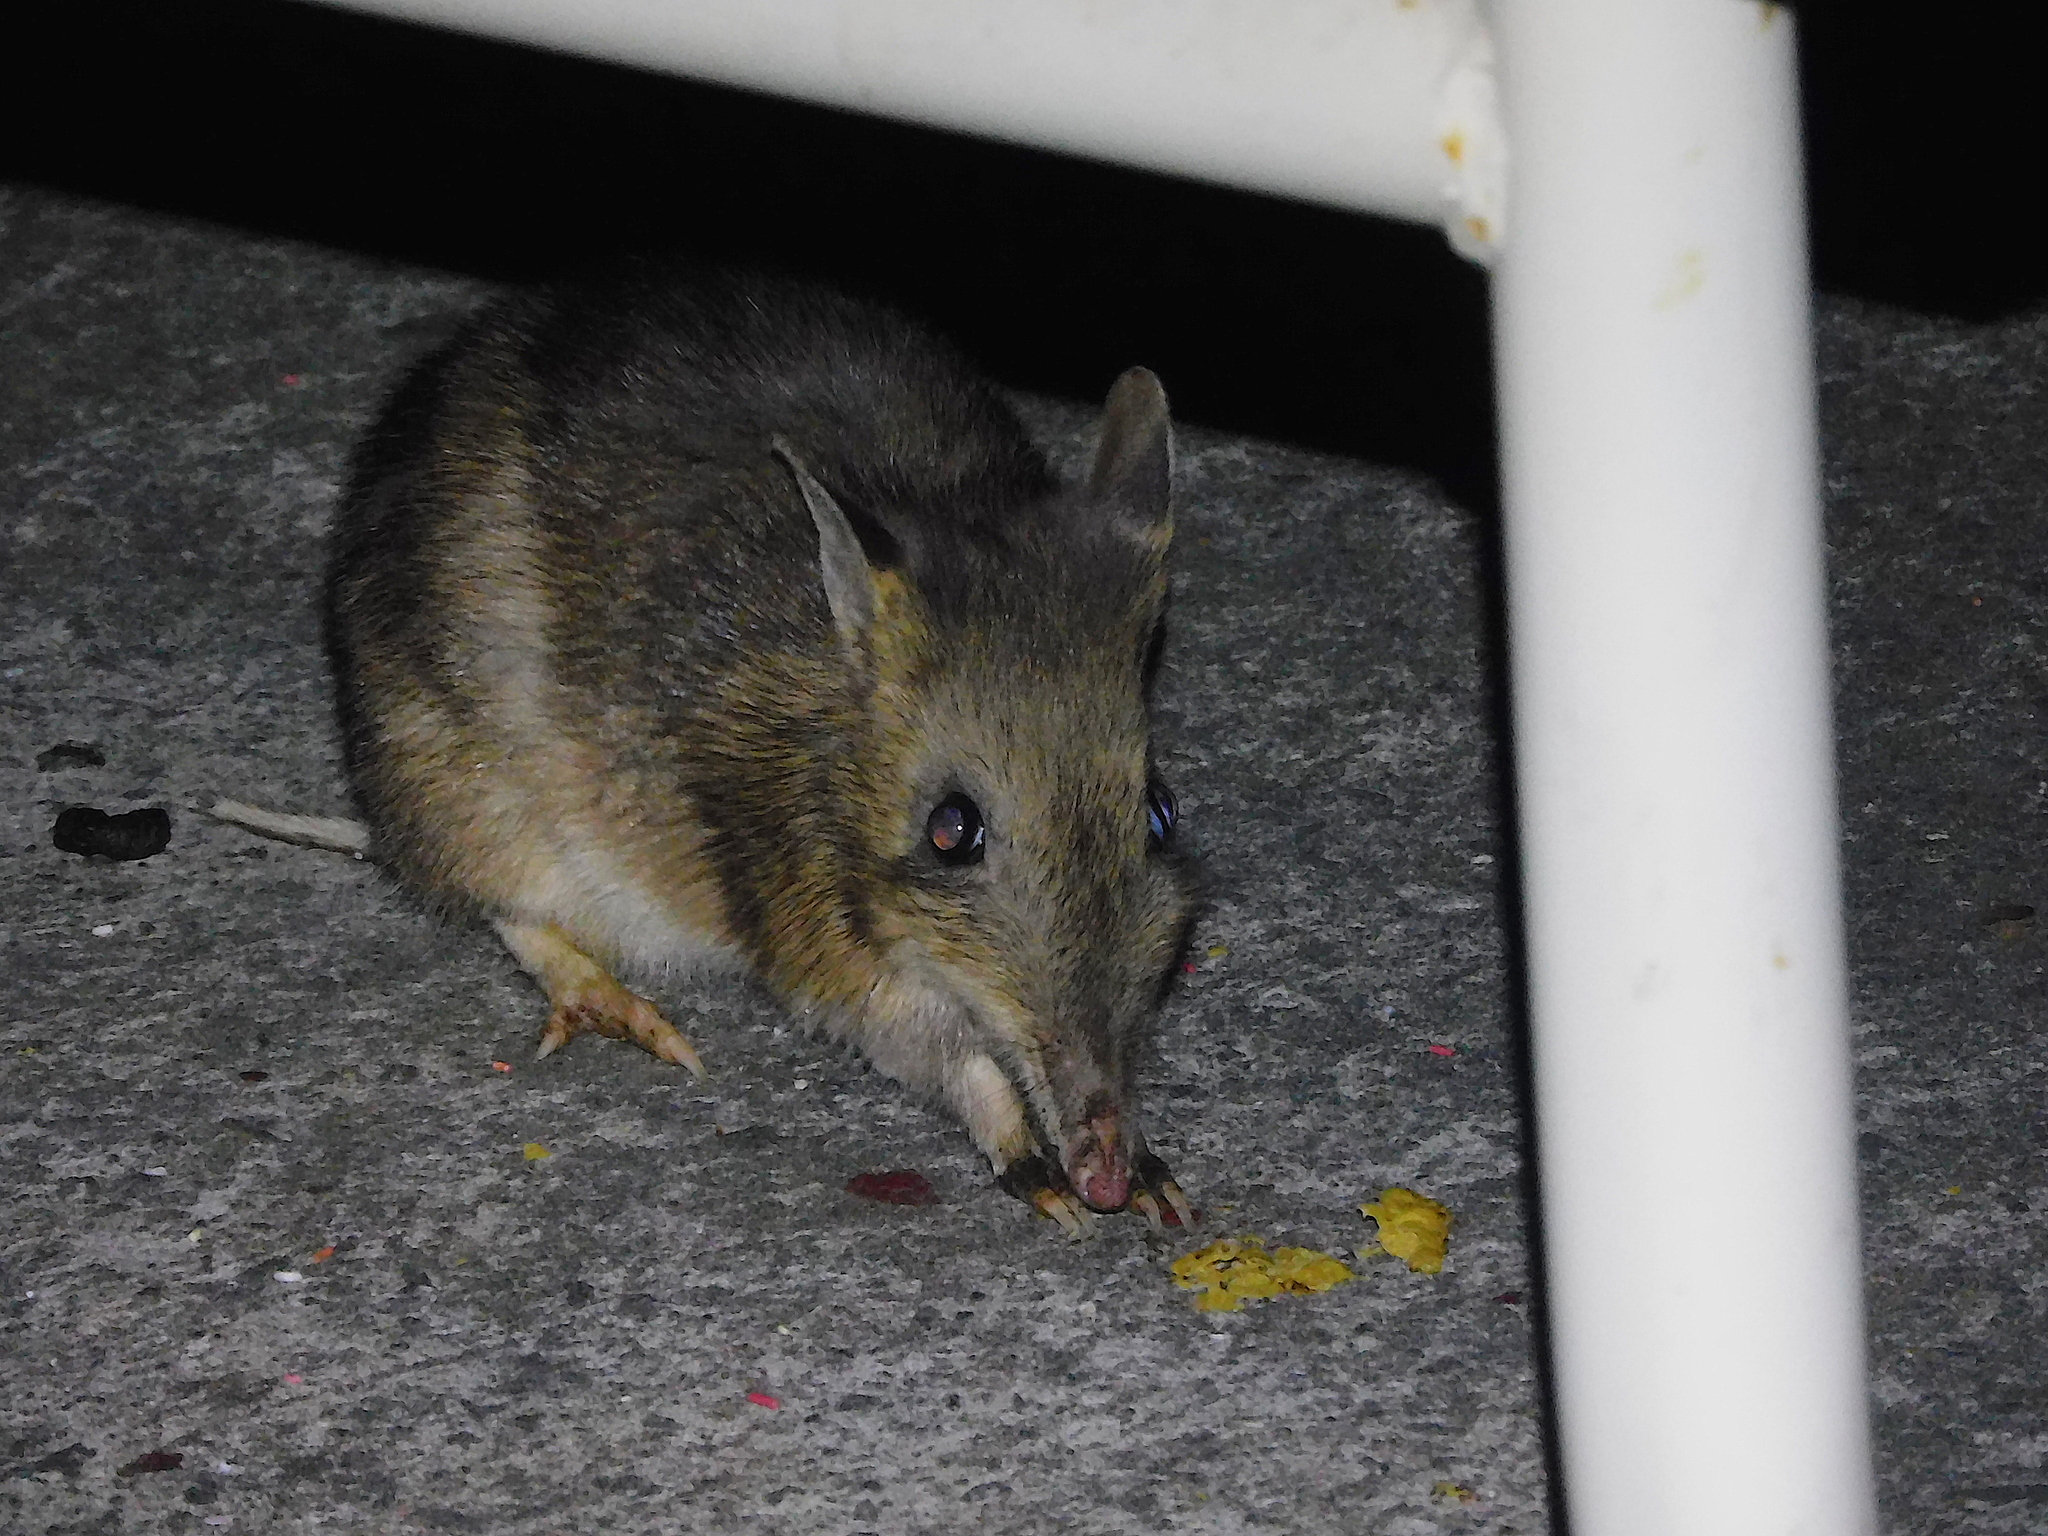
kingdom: Animalia
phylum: Chordata
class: Mammalia
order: Peramelemorphia
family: Peramelidae
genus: Perameles
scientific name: Perameles gunnii
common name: Eastern barred bandicoot
